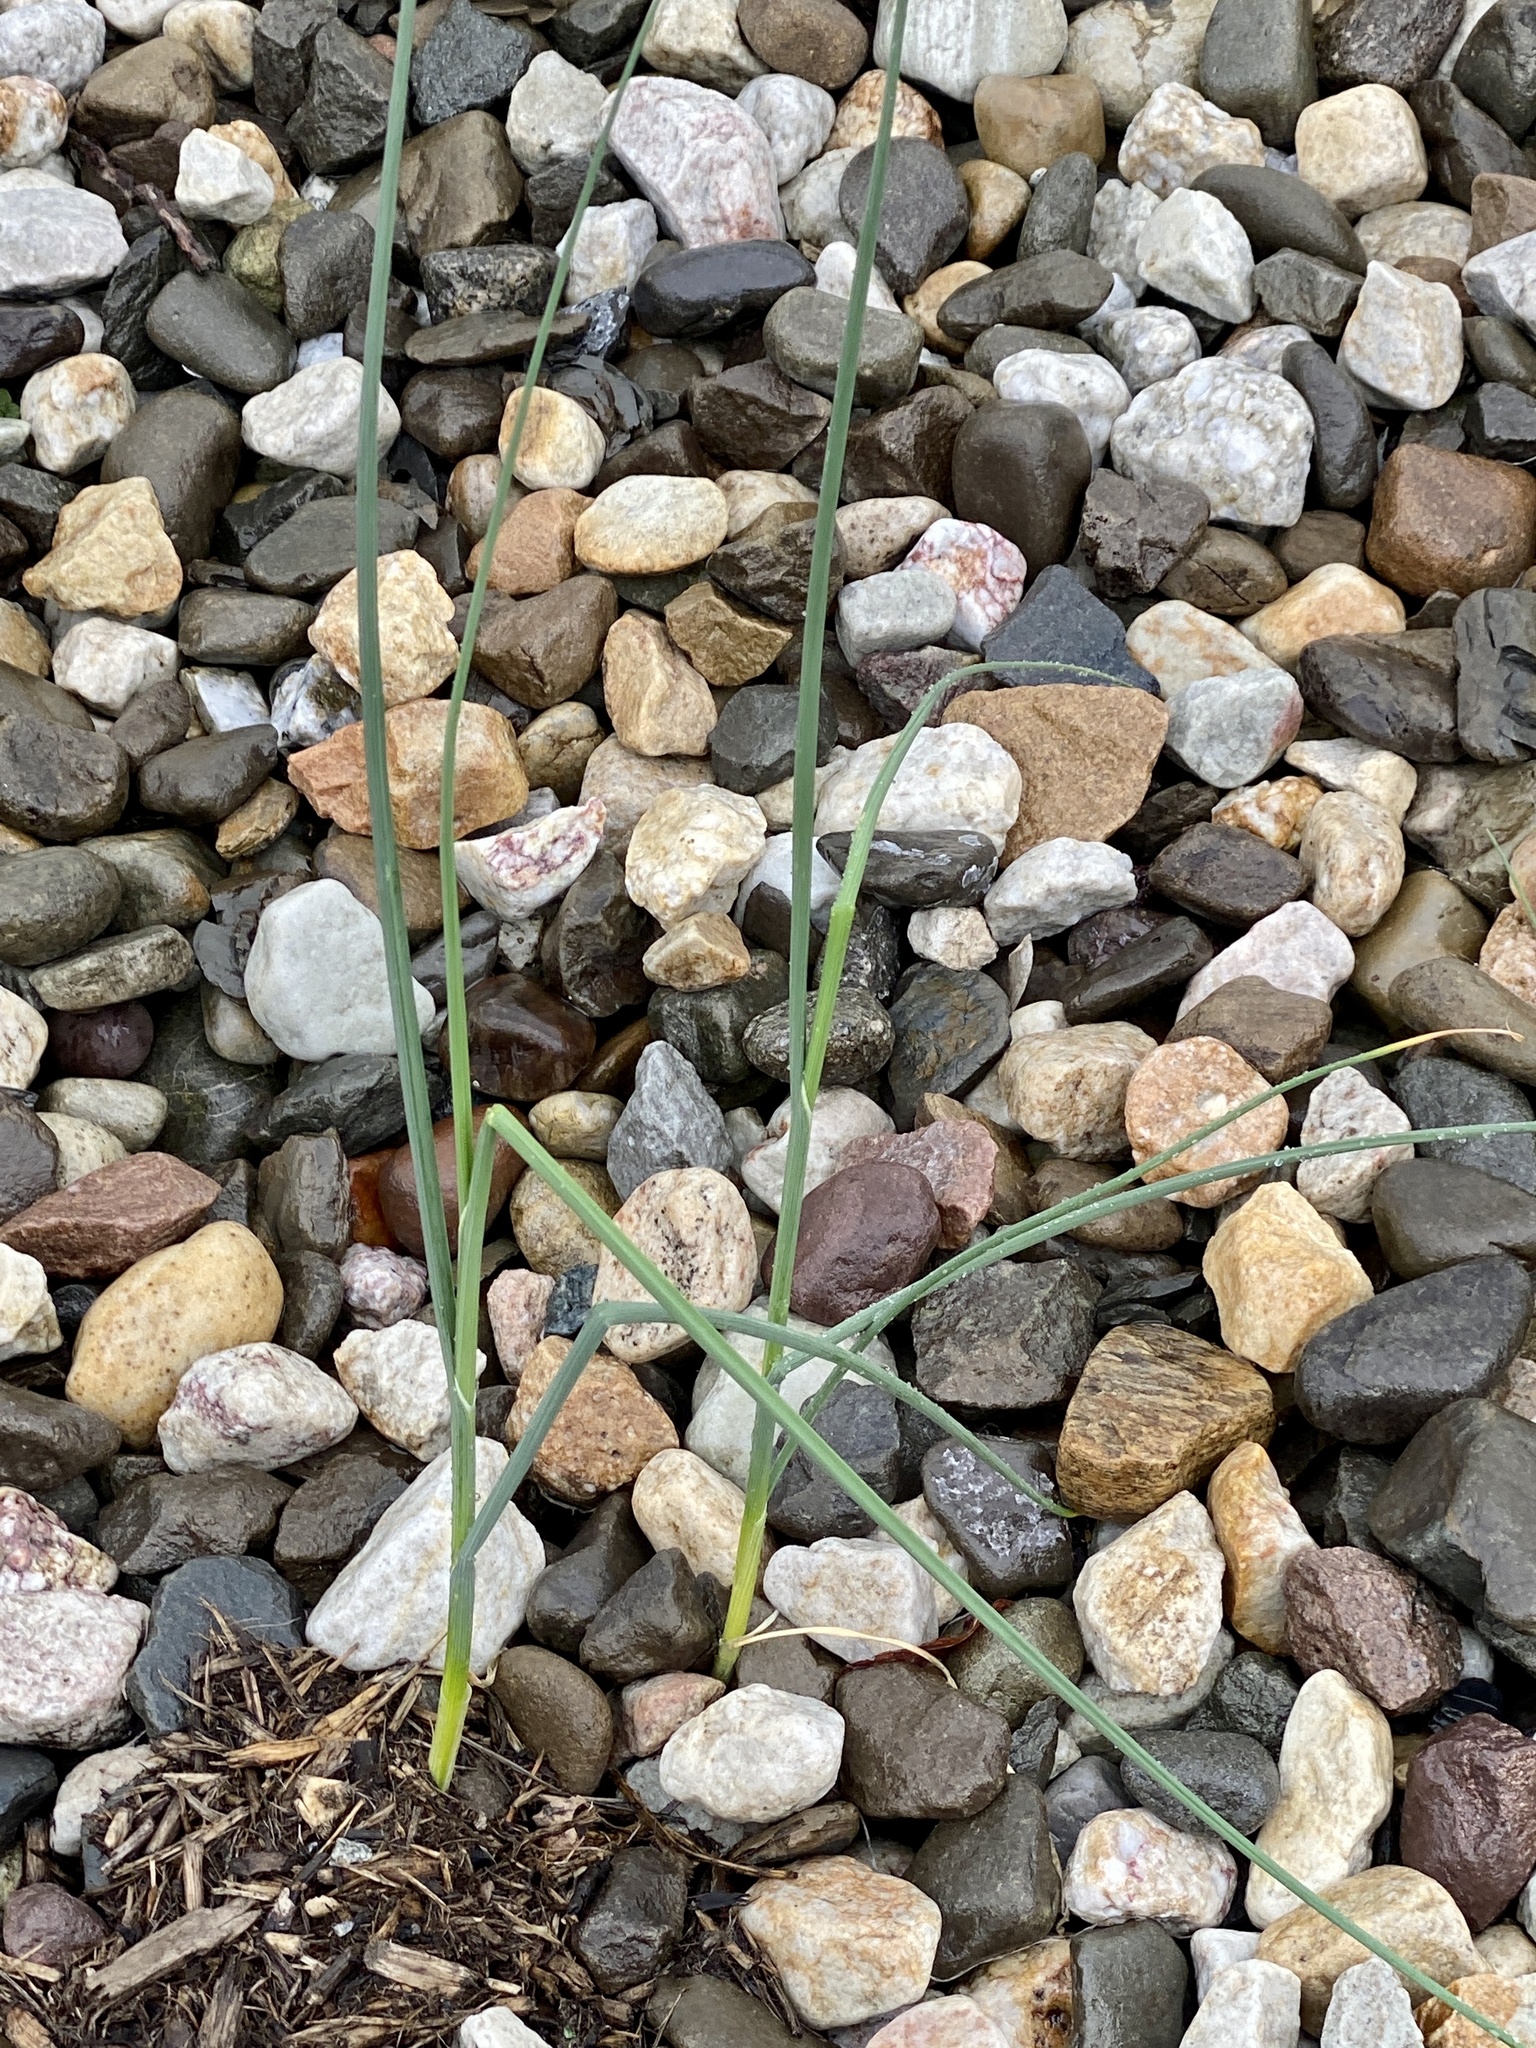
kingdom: Plantae
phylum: Tracheophyta
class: Liliopsida
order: Asparagales
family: Amaryllidaceae
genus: Allium
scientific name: Allium vineale
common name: Crow garlic
